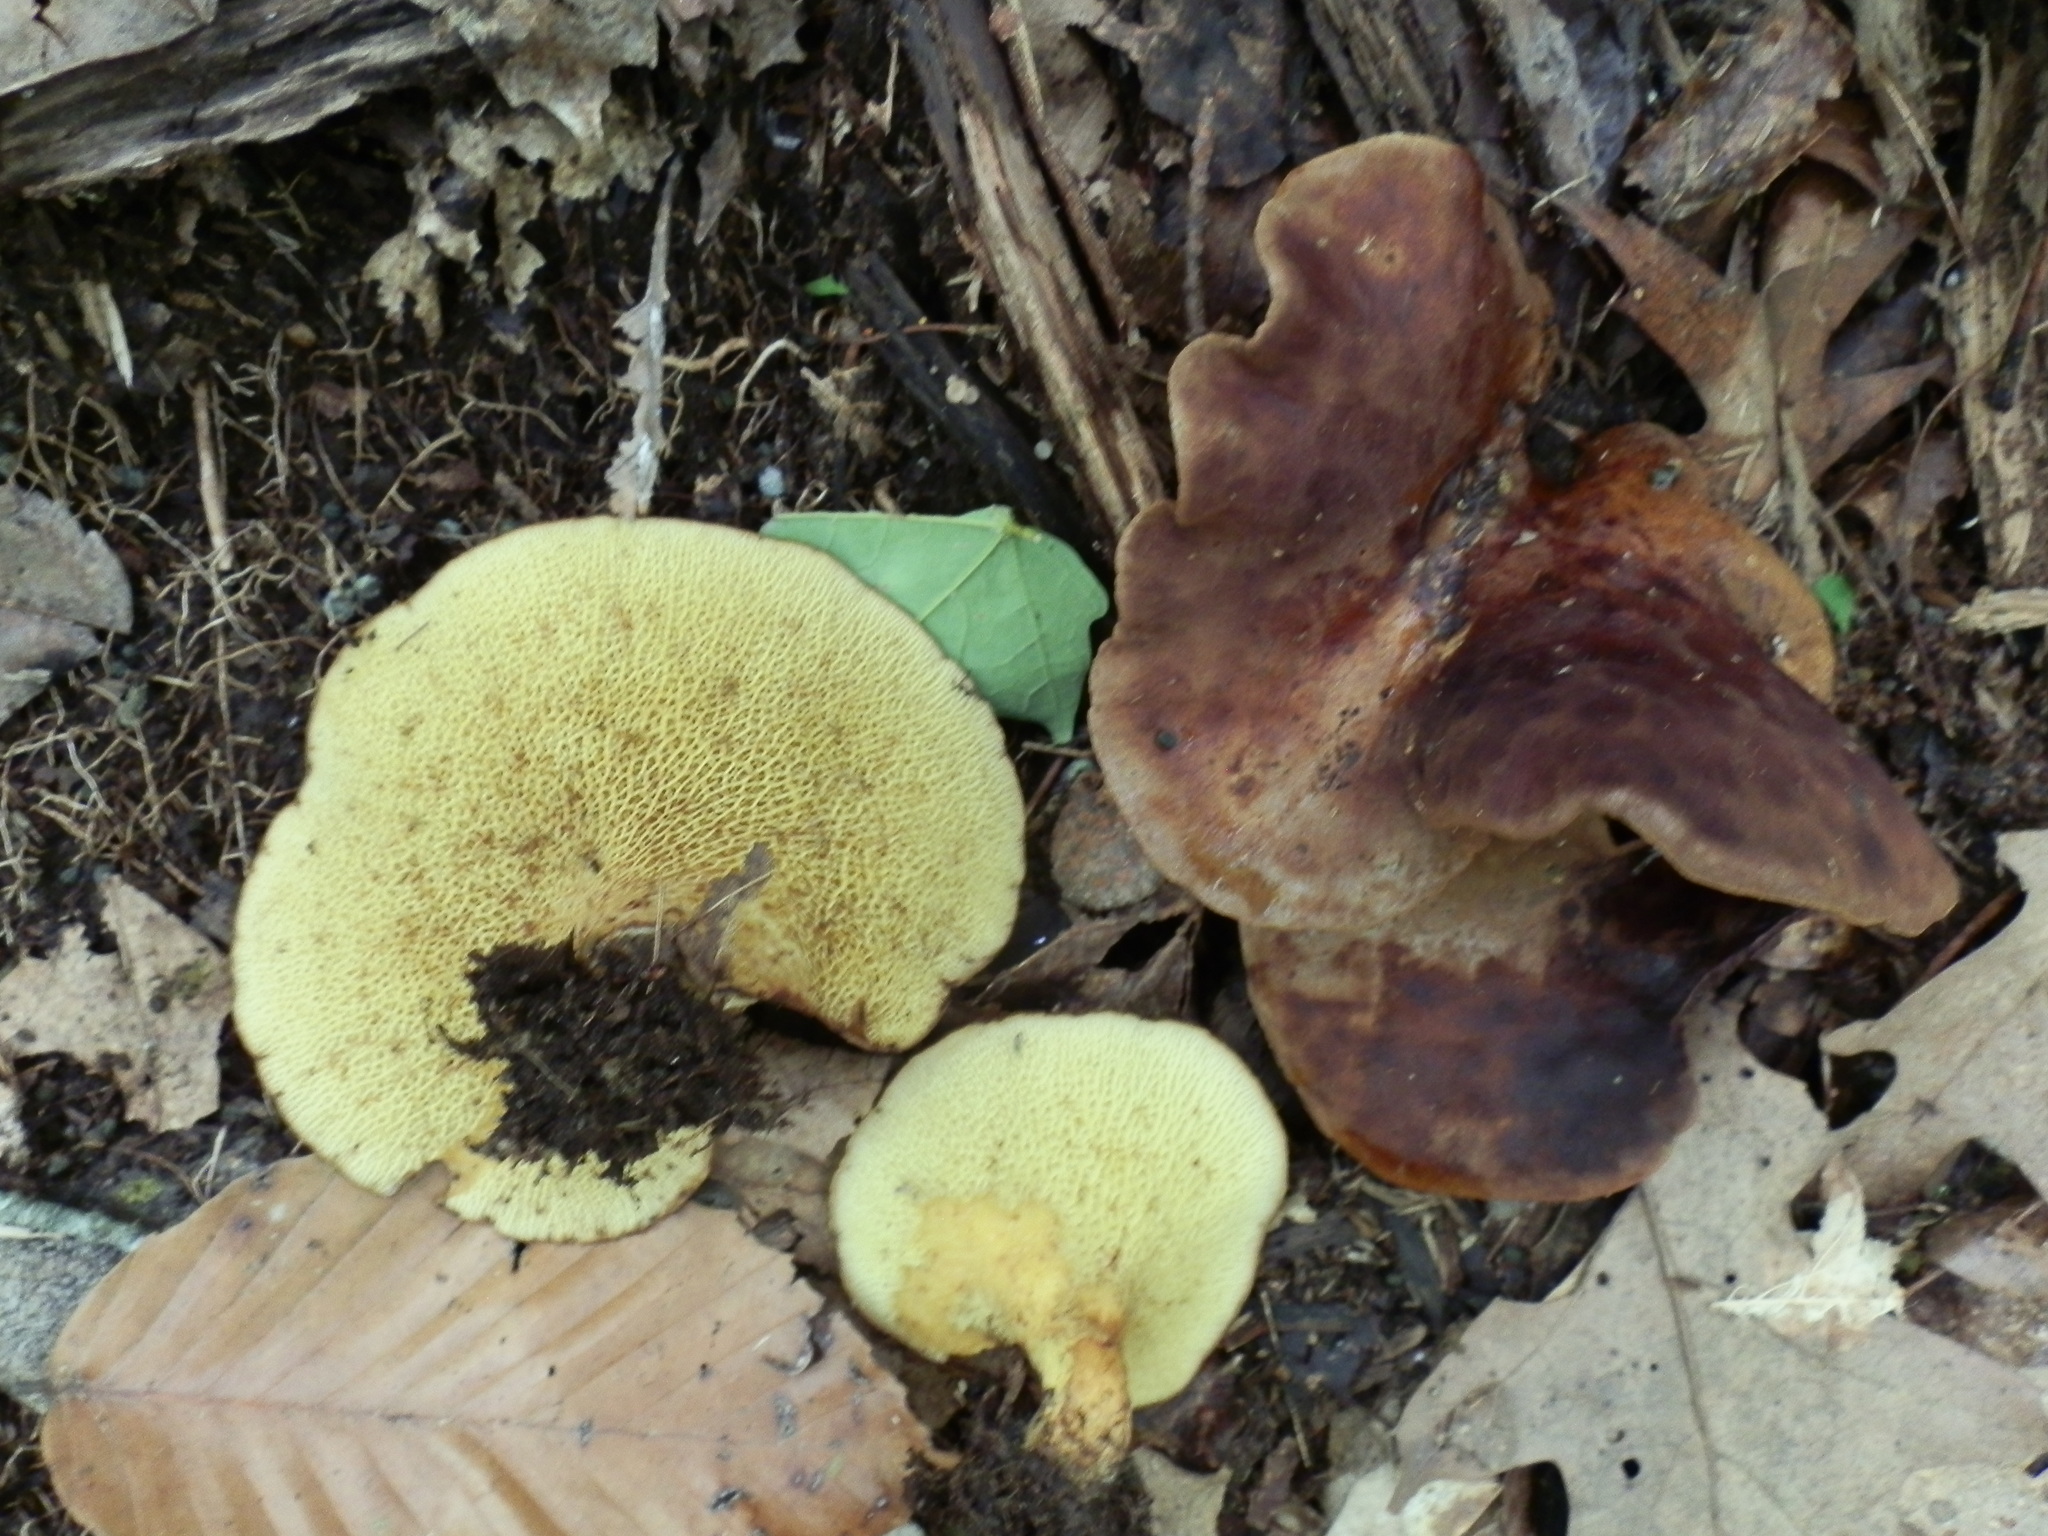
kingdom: Fungi
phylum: Basidiomycota
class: Agaricomycetes
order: Boletales
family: Boletinellaceae
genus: Boletinellus
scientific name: Boletinellus merulioides
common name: Ash tree bolete
